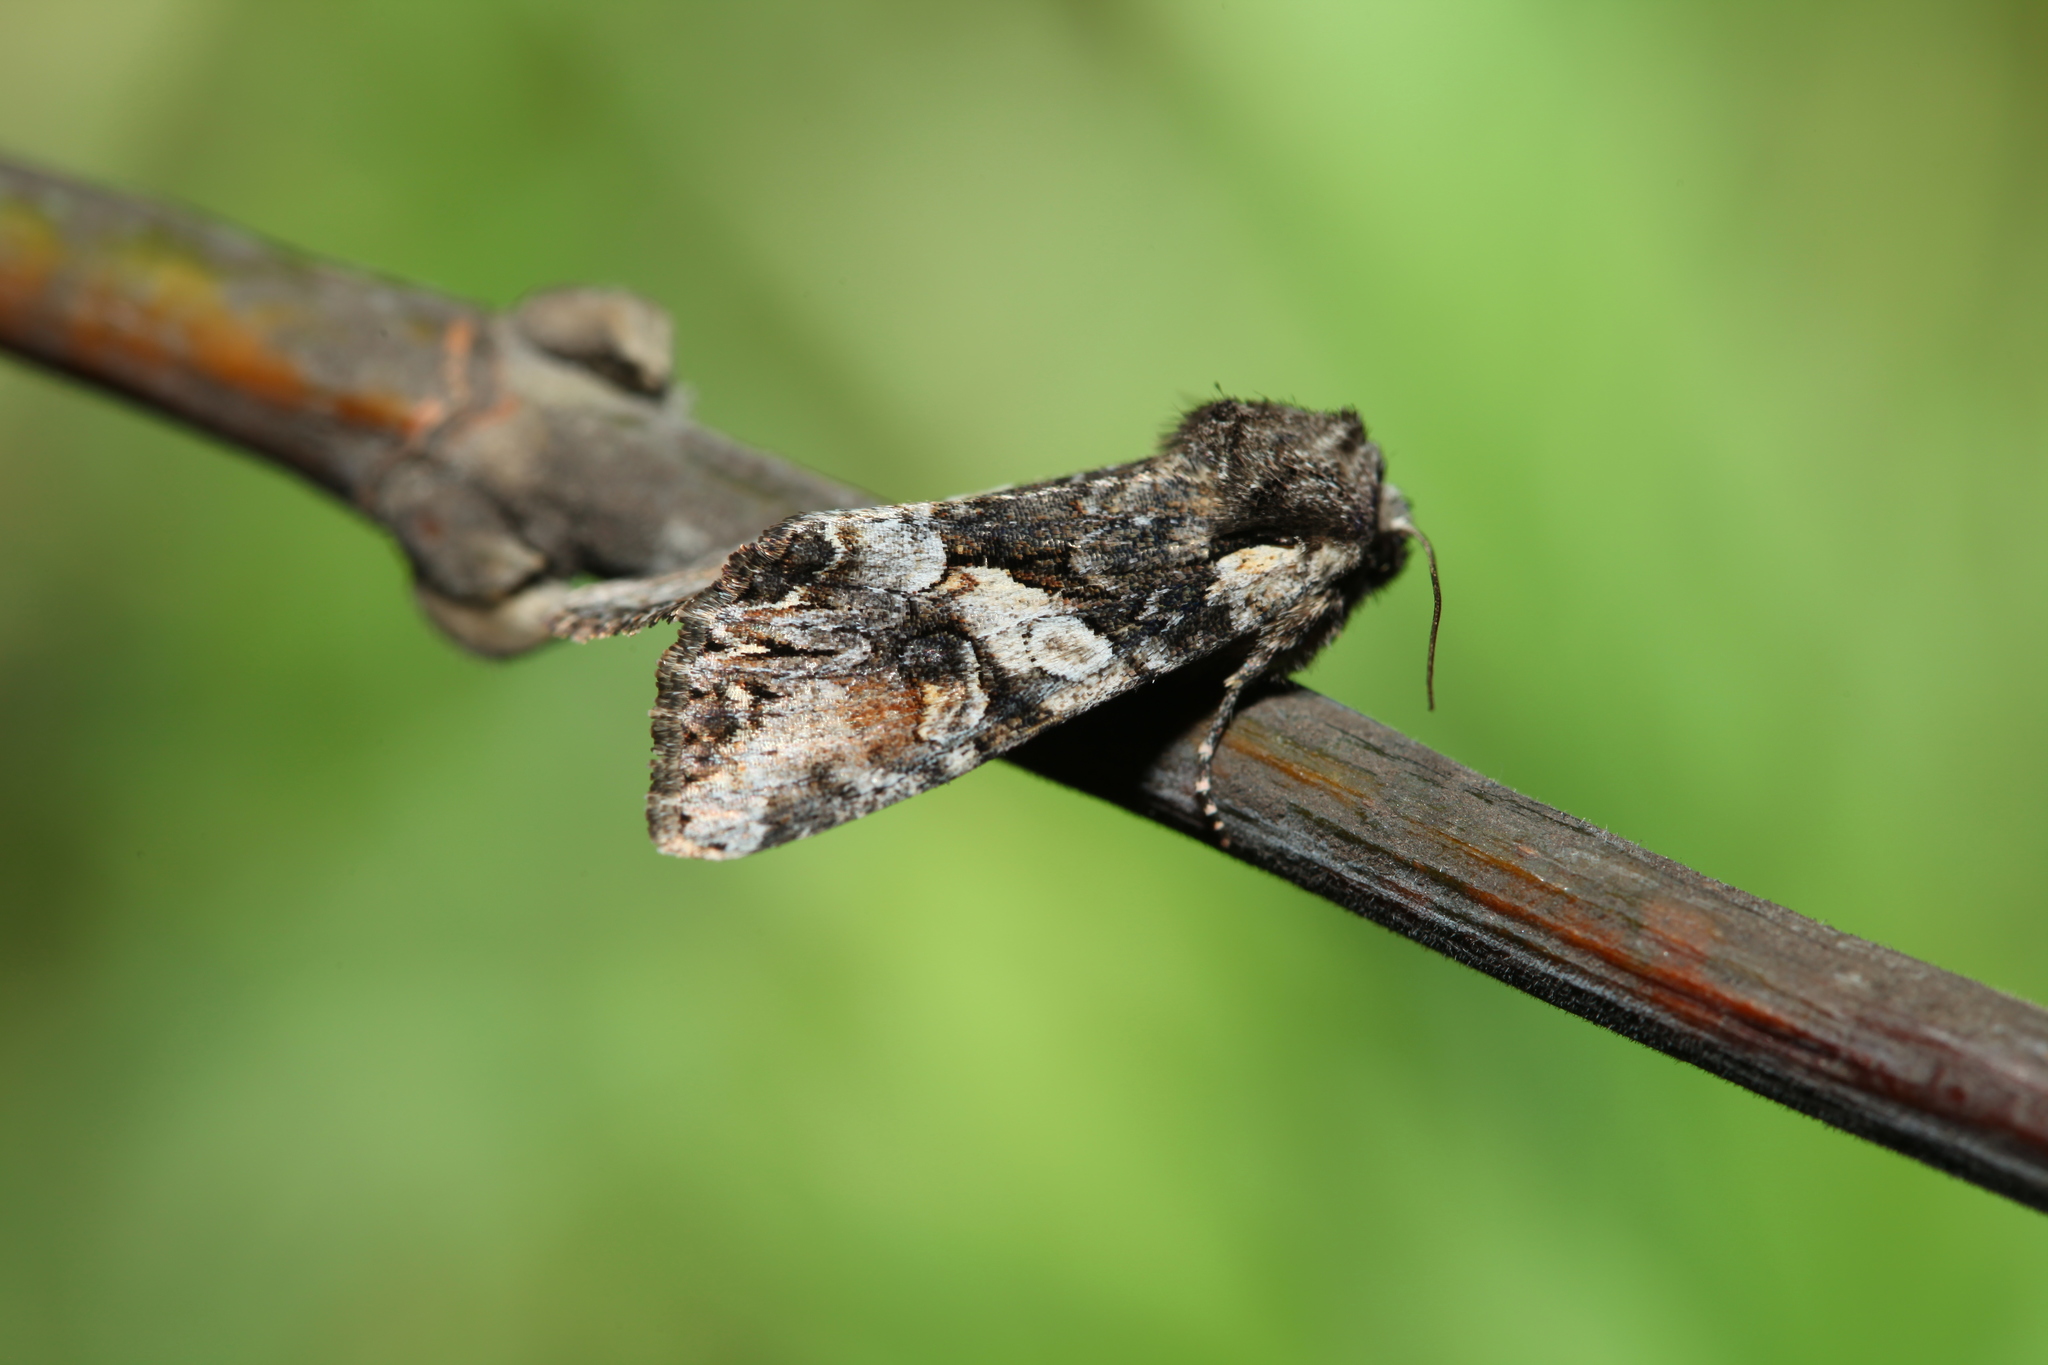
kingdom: Animalia
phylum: Arthropoda
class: Insecta
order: Lepidoptera
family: Noctuidae
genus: Lacanobia
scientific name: Lacanobia contigua
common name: Beautiful brocade
